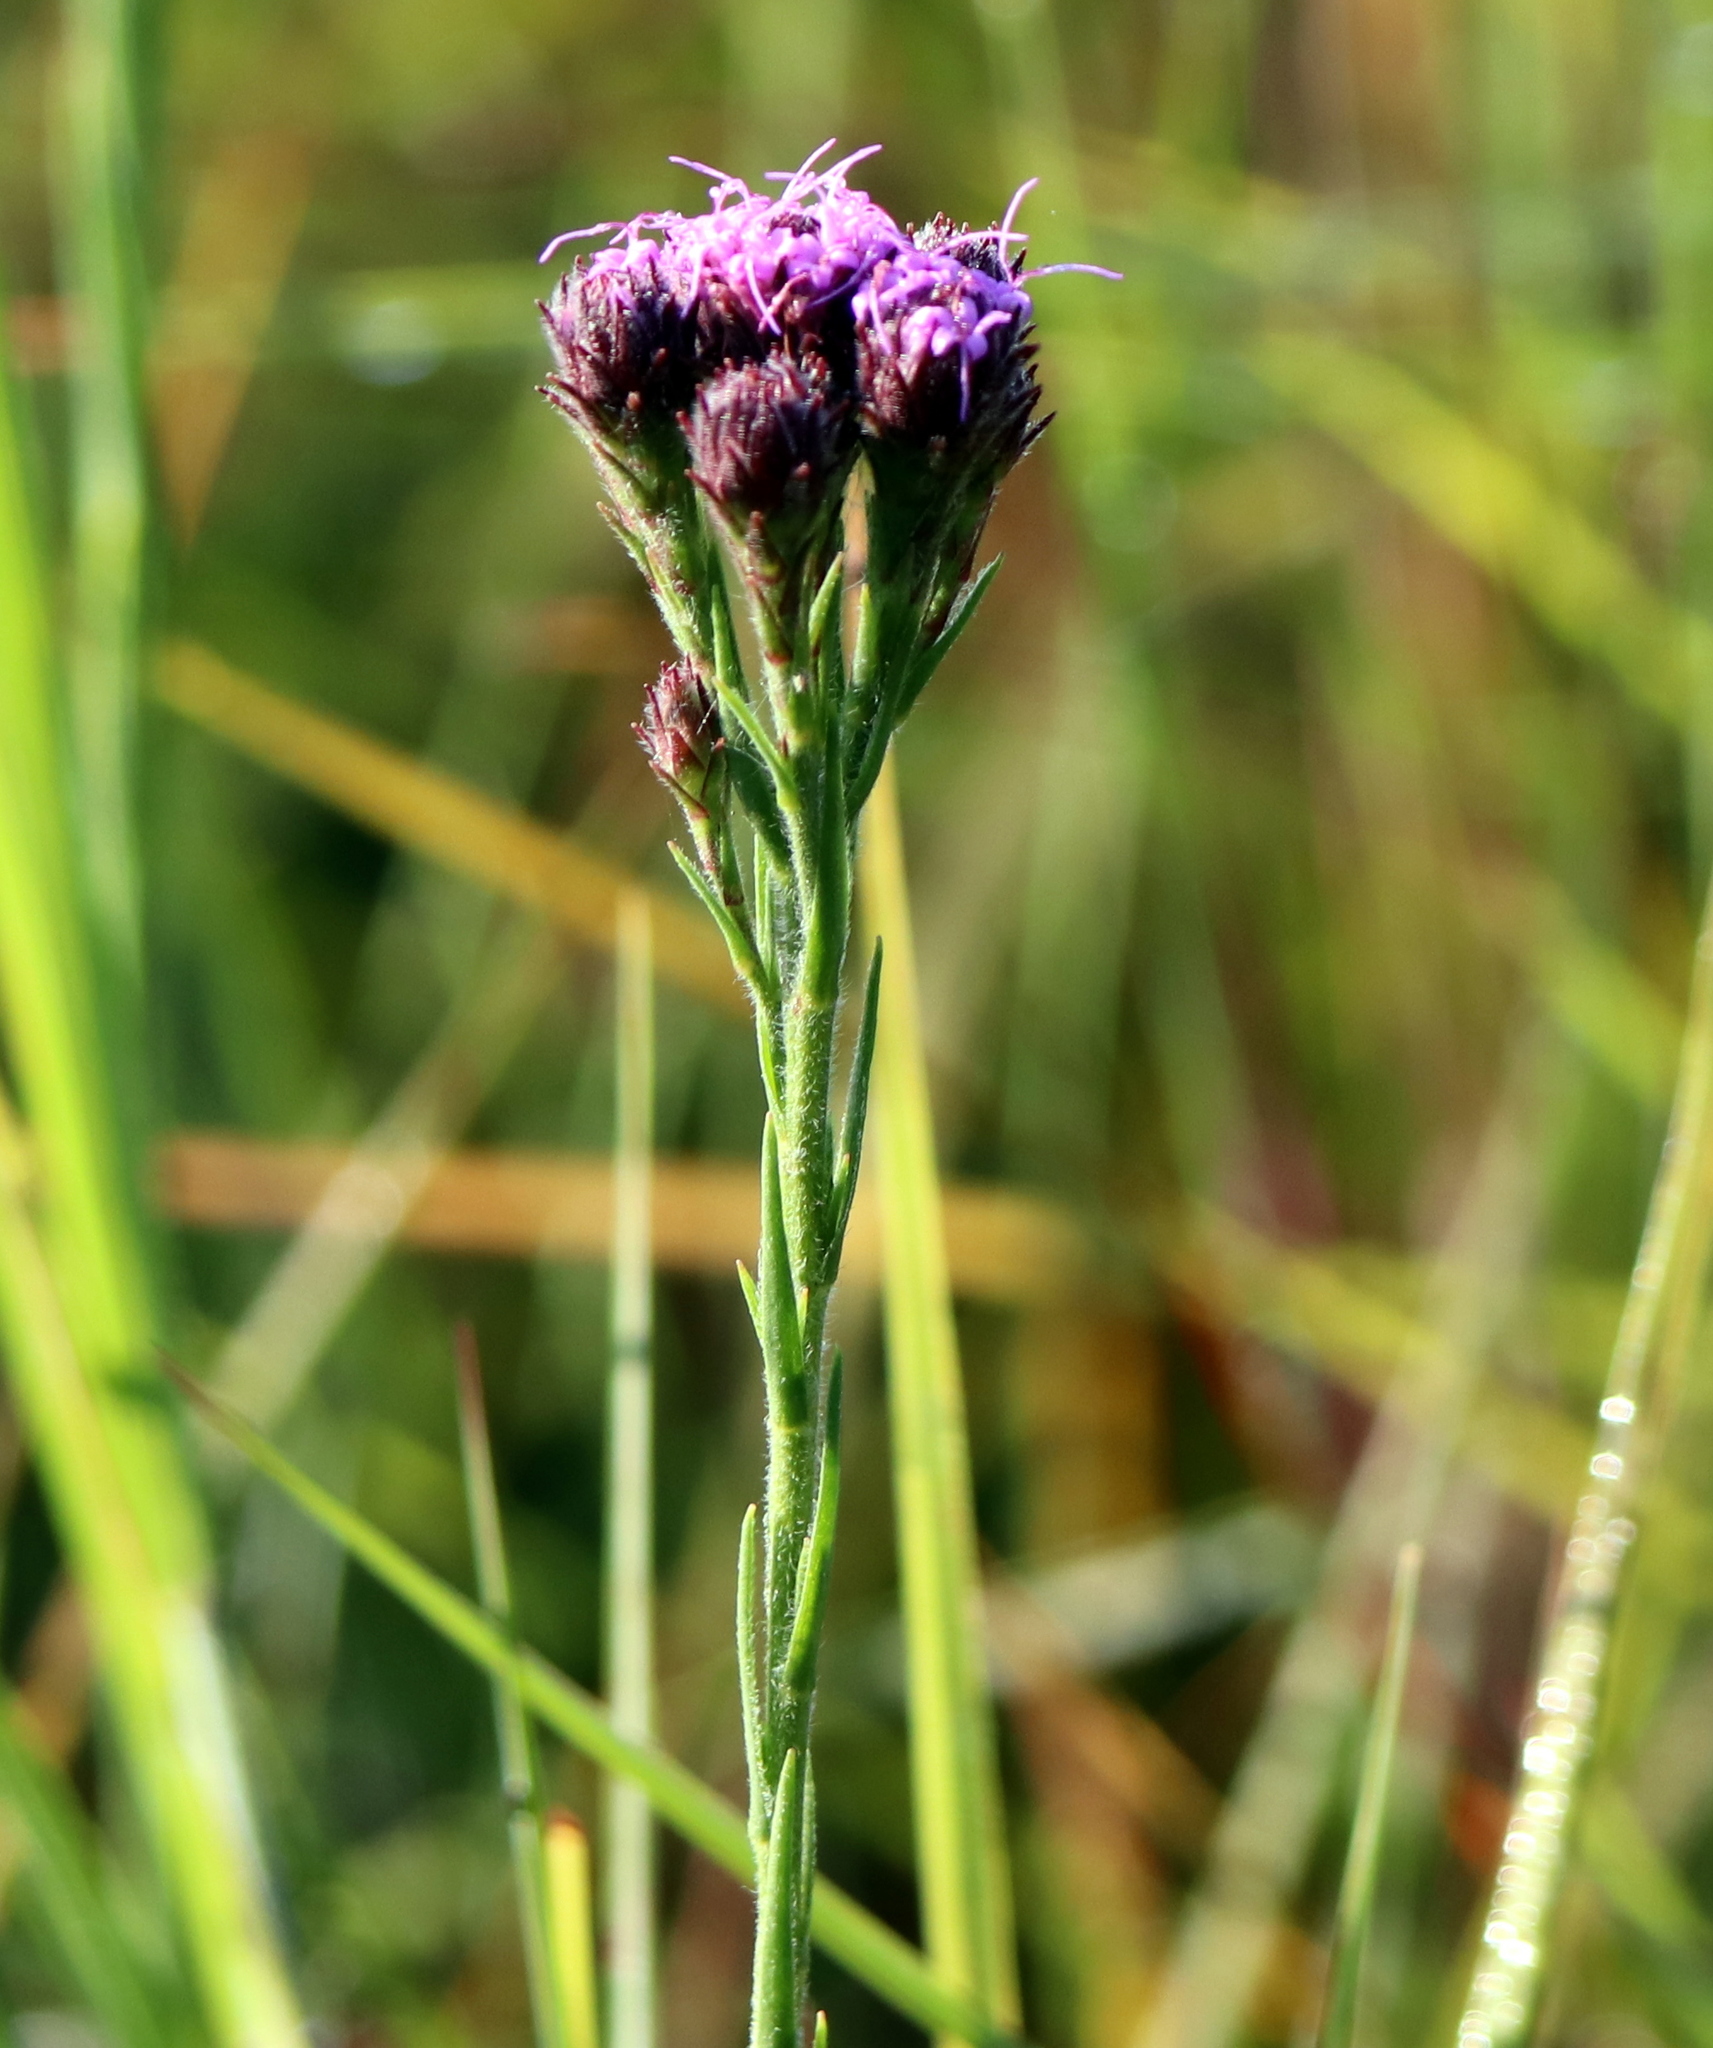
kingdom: Plantae
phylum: Tracheophyta
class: Magnoliopsida
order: Asterales
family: Asteraceae
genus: Carphephorus
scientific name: Carphephorus pseudoliatris
